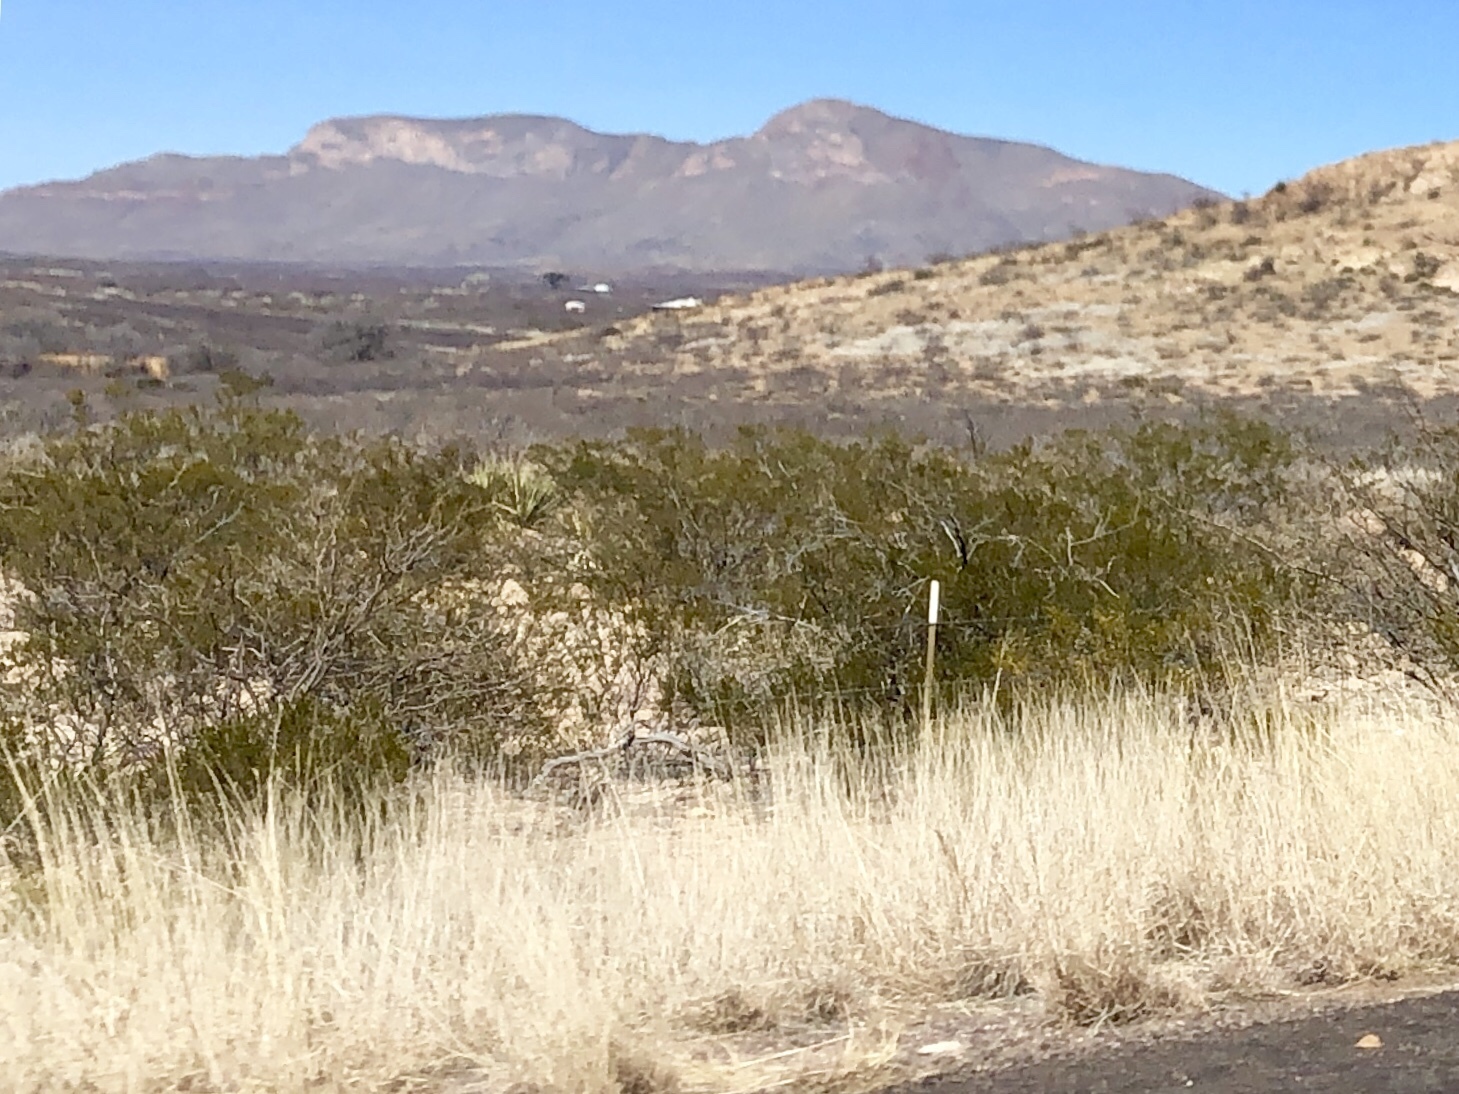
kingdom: Plantae
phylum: Tracheophyta
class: Magnoliopsida
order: Zygophyllales
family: Zygophyllaceae
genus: Larrea
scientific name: Larrea tridentata
